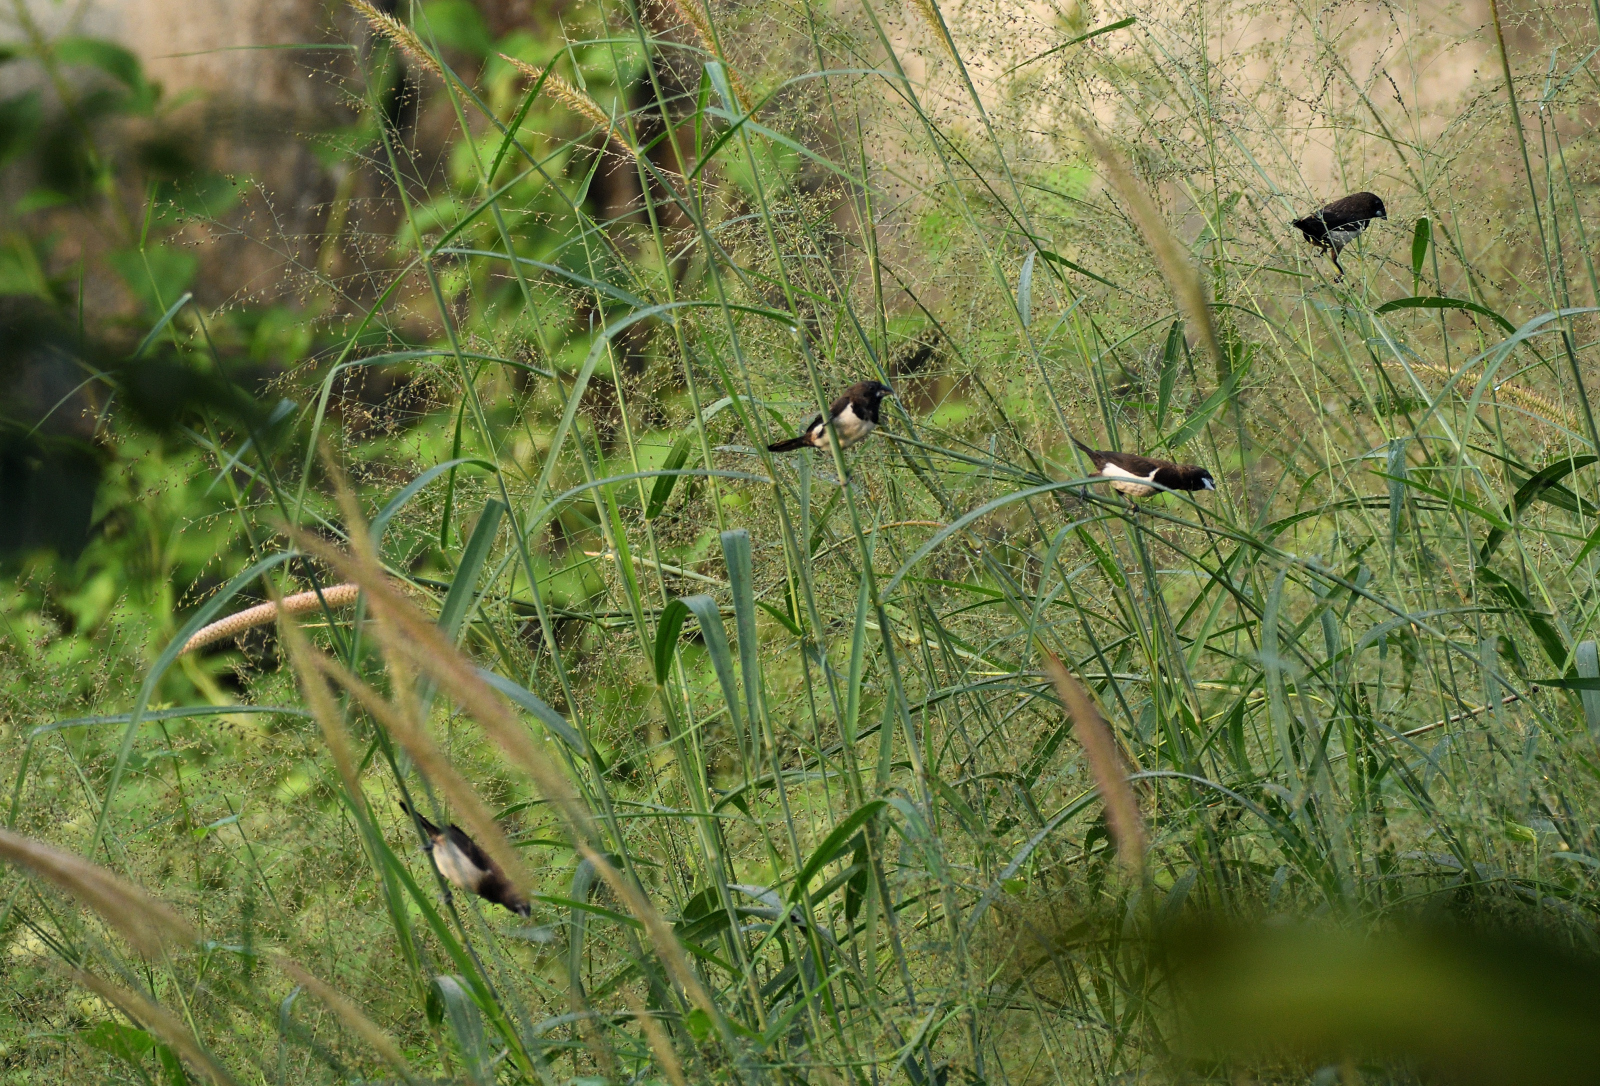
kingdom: Animalia
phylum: Chordata
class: Aves
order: Passeriformes
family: Estrildidae
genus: Lonchura
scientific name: Lonchura striata
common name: White-rumped munia
